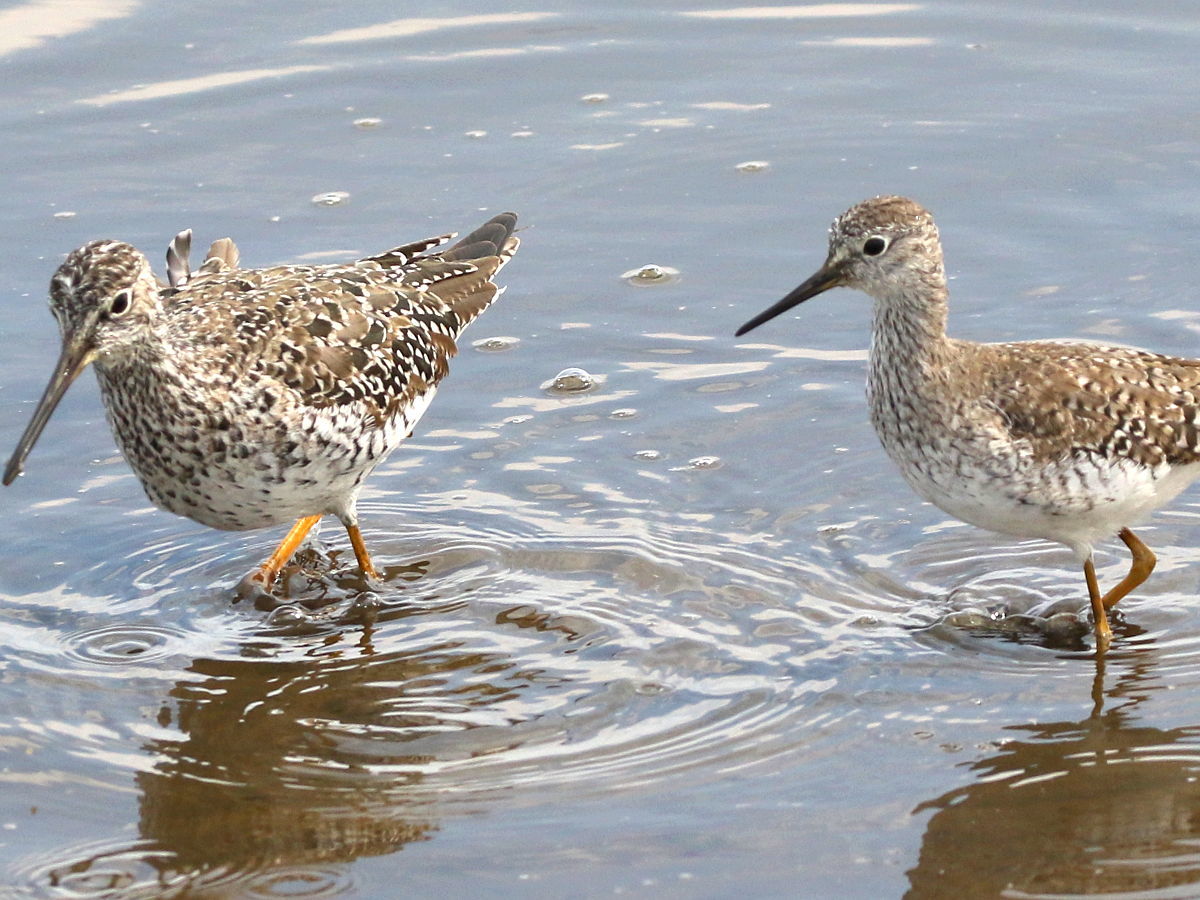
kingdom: Animalia
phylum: Chordata
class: Aves
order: Charadriiformes
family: Scolopacidae
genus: Tringa
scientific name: Tringa melanoleuca
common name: Greater yellowlegs
